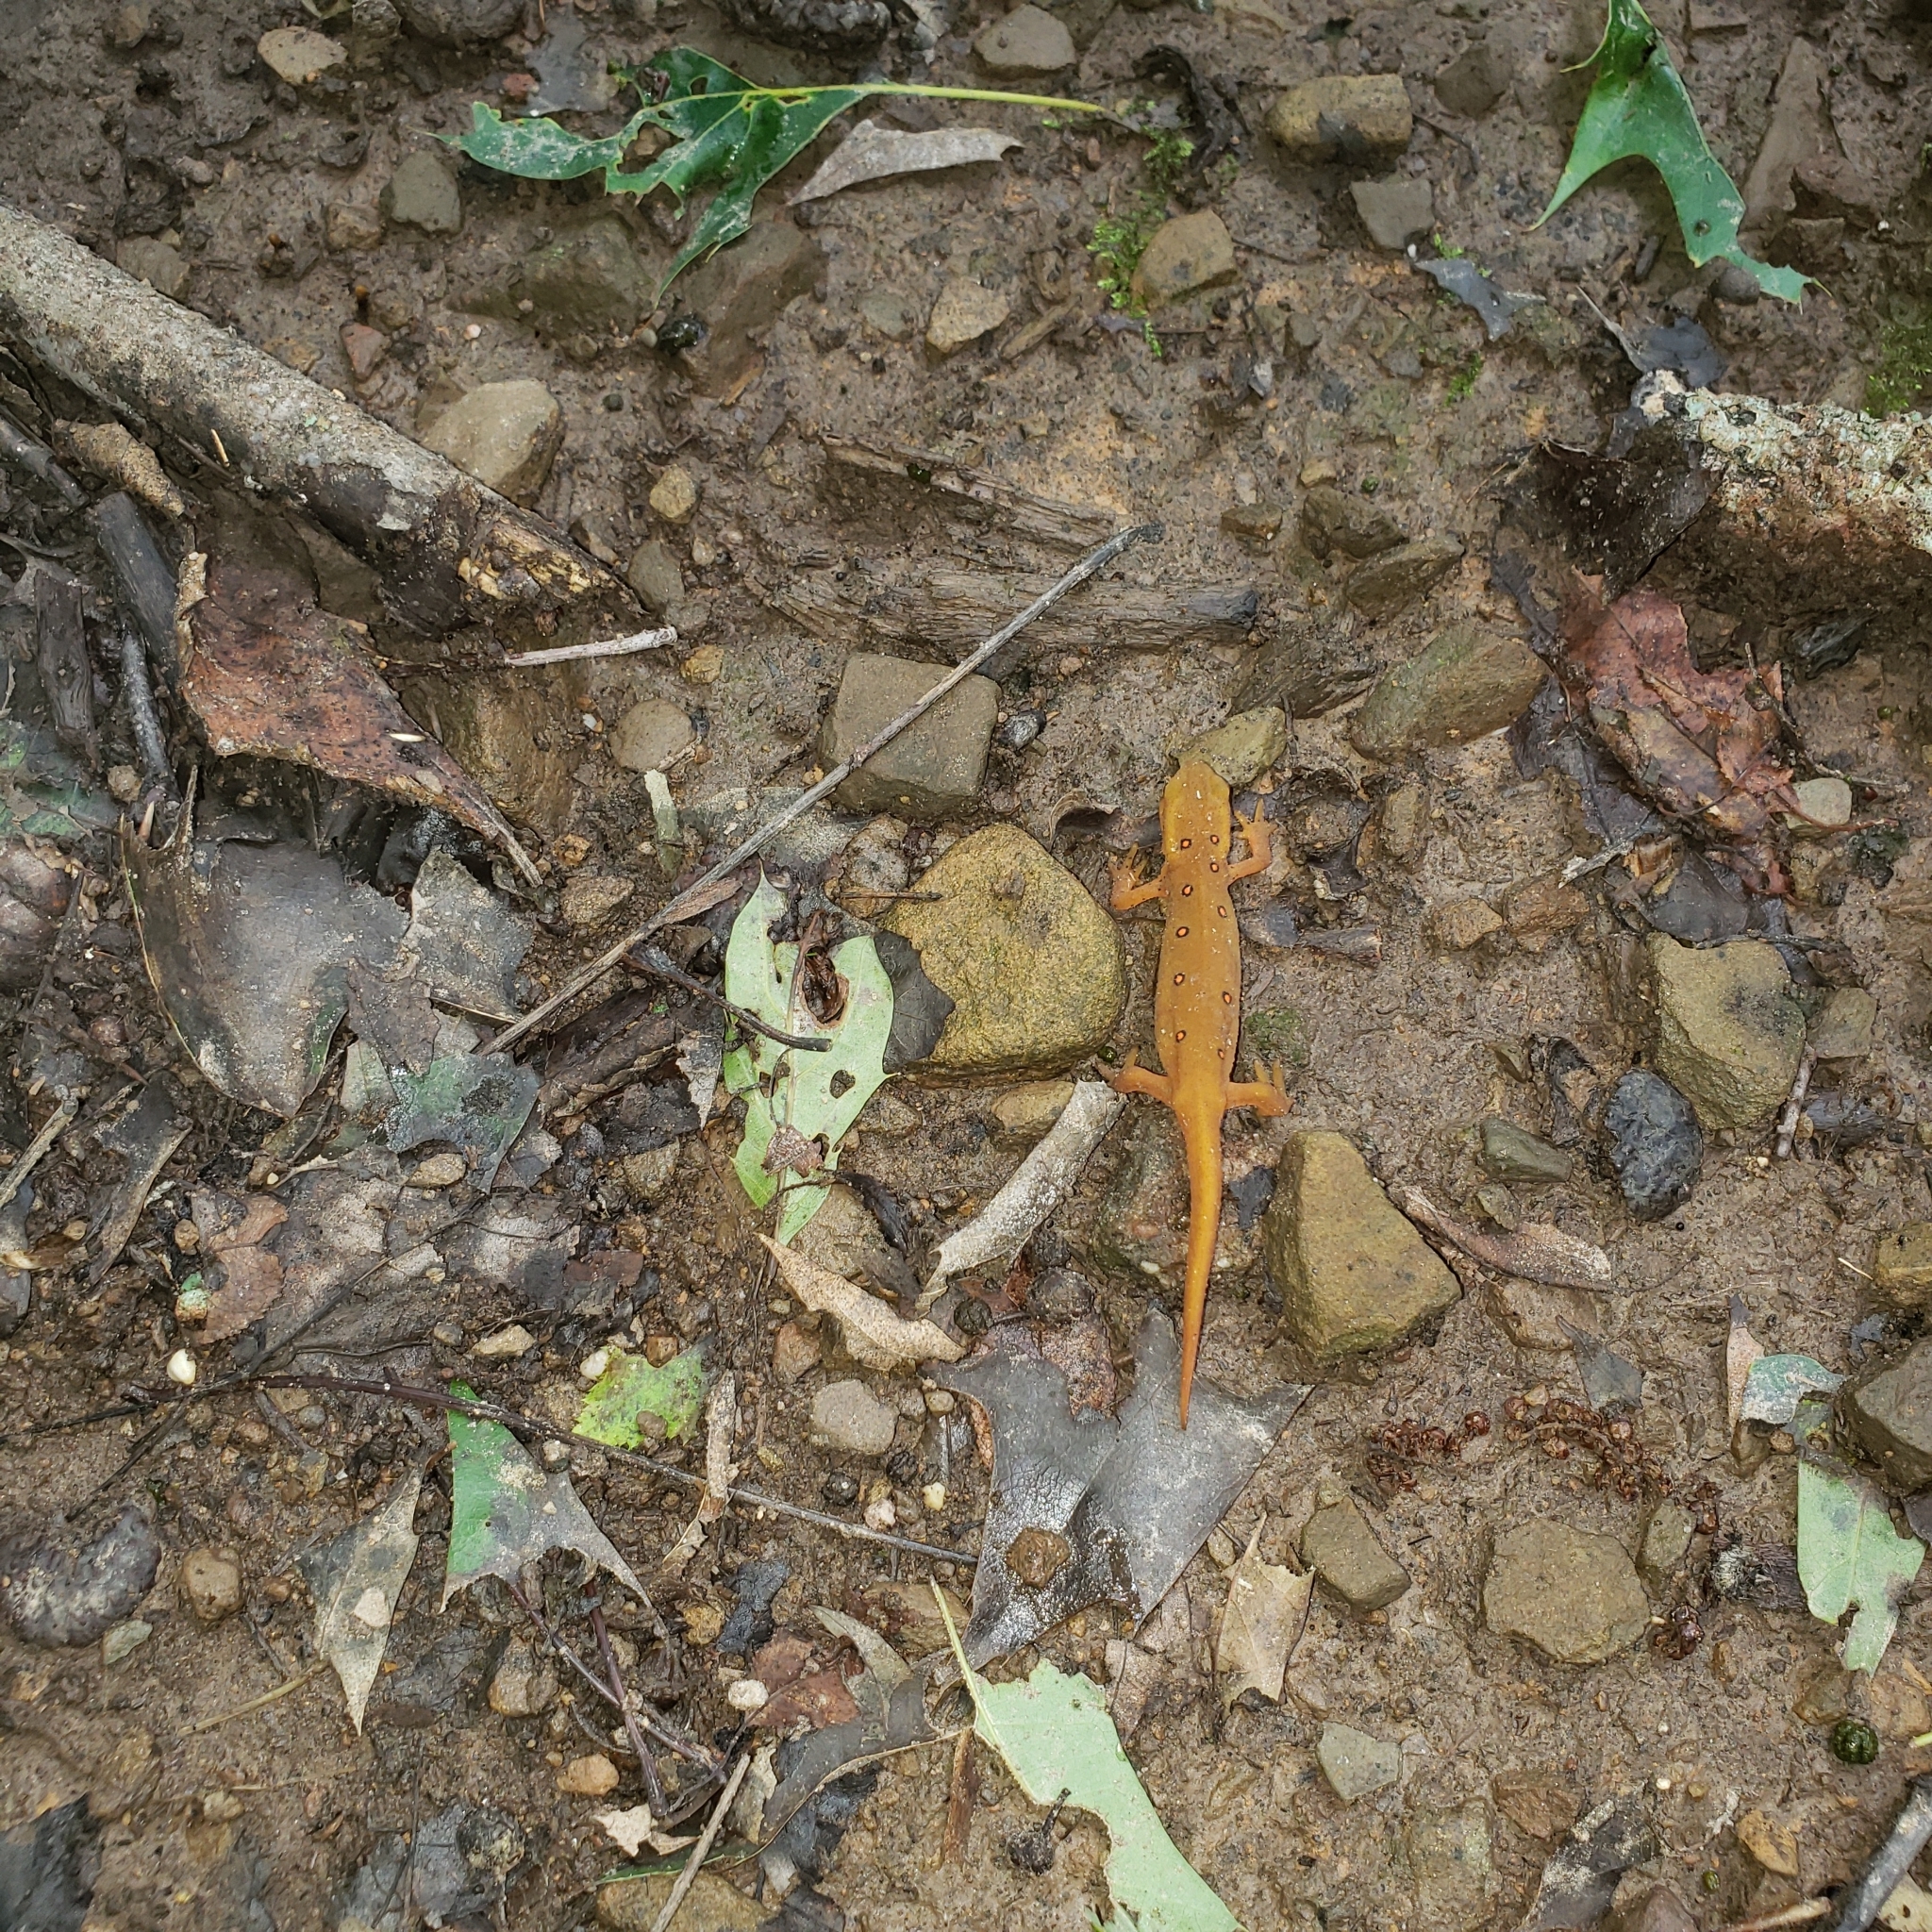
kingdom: Animalia
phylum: Chordata
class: Amphibia
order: Caudata
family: Salamandridae
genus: Notophthalmus
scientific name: Notophthalmus viridescens
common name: Eastern newt
